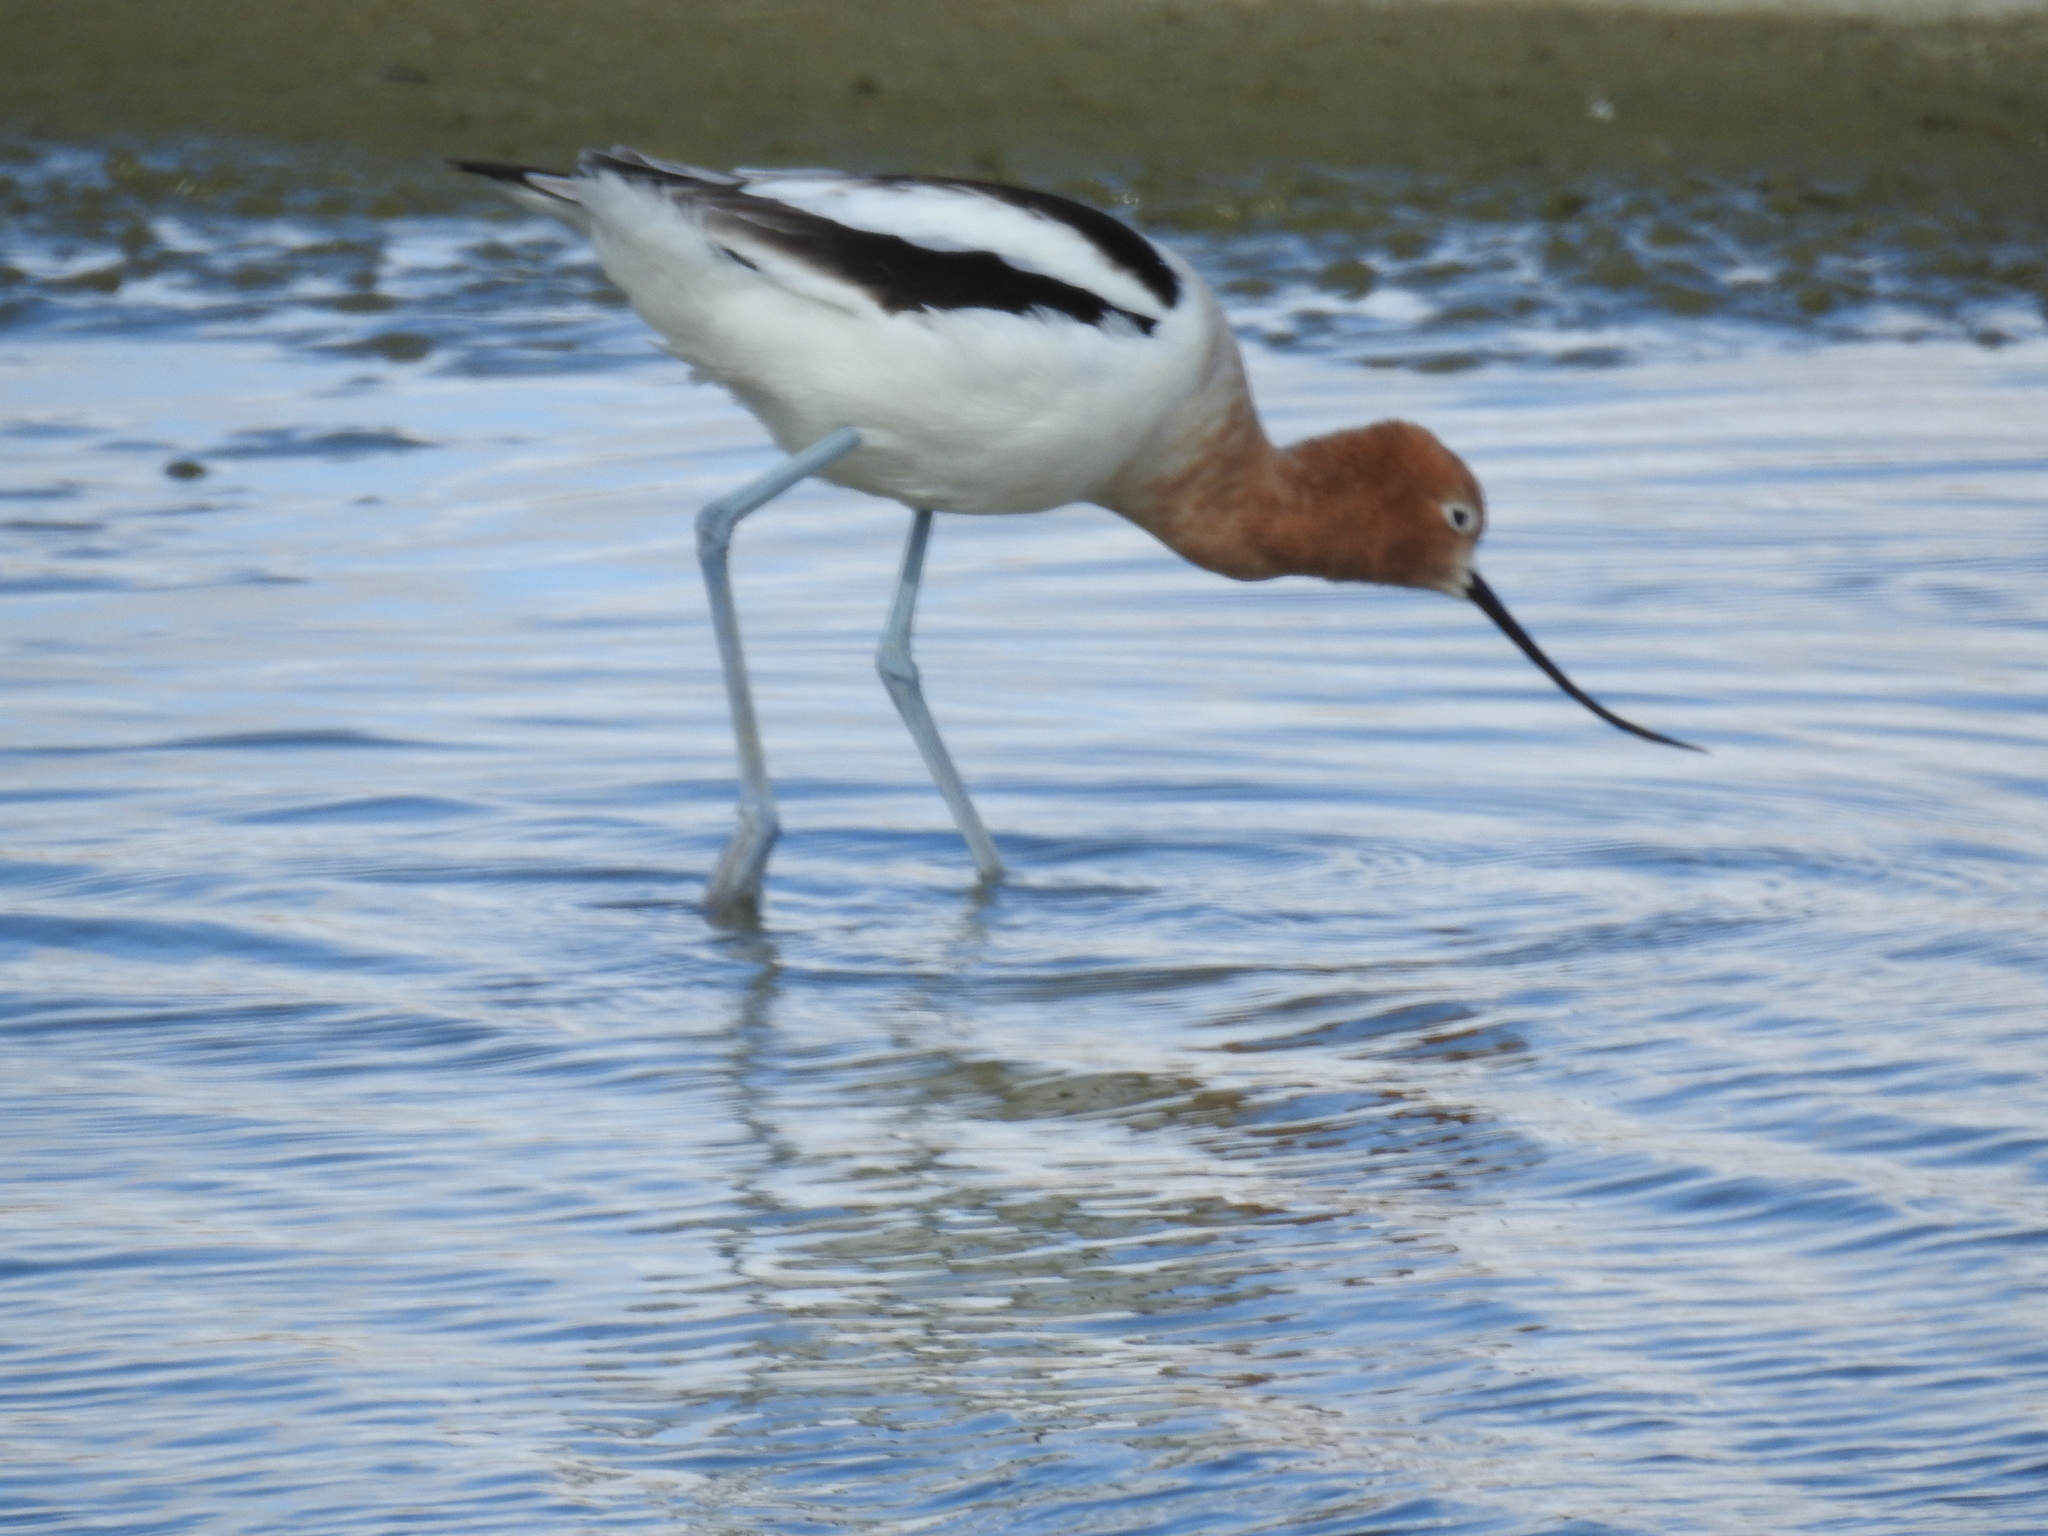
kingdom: Animalia
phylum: Chordata
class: Aves
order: Charadriiformes
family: Recurvirostridae
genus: Recurvirostra
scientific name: Recurvirostra americana
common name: American avocet
